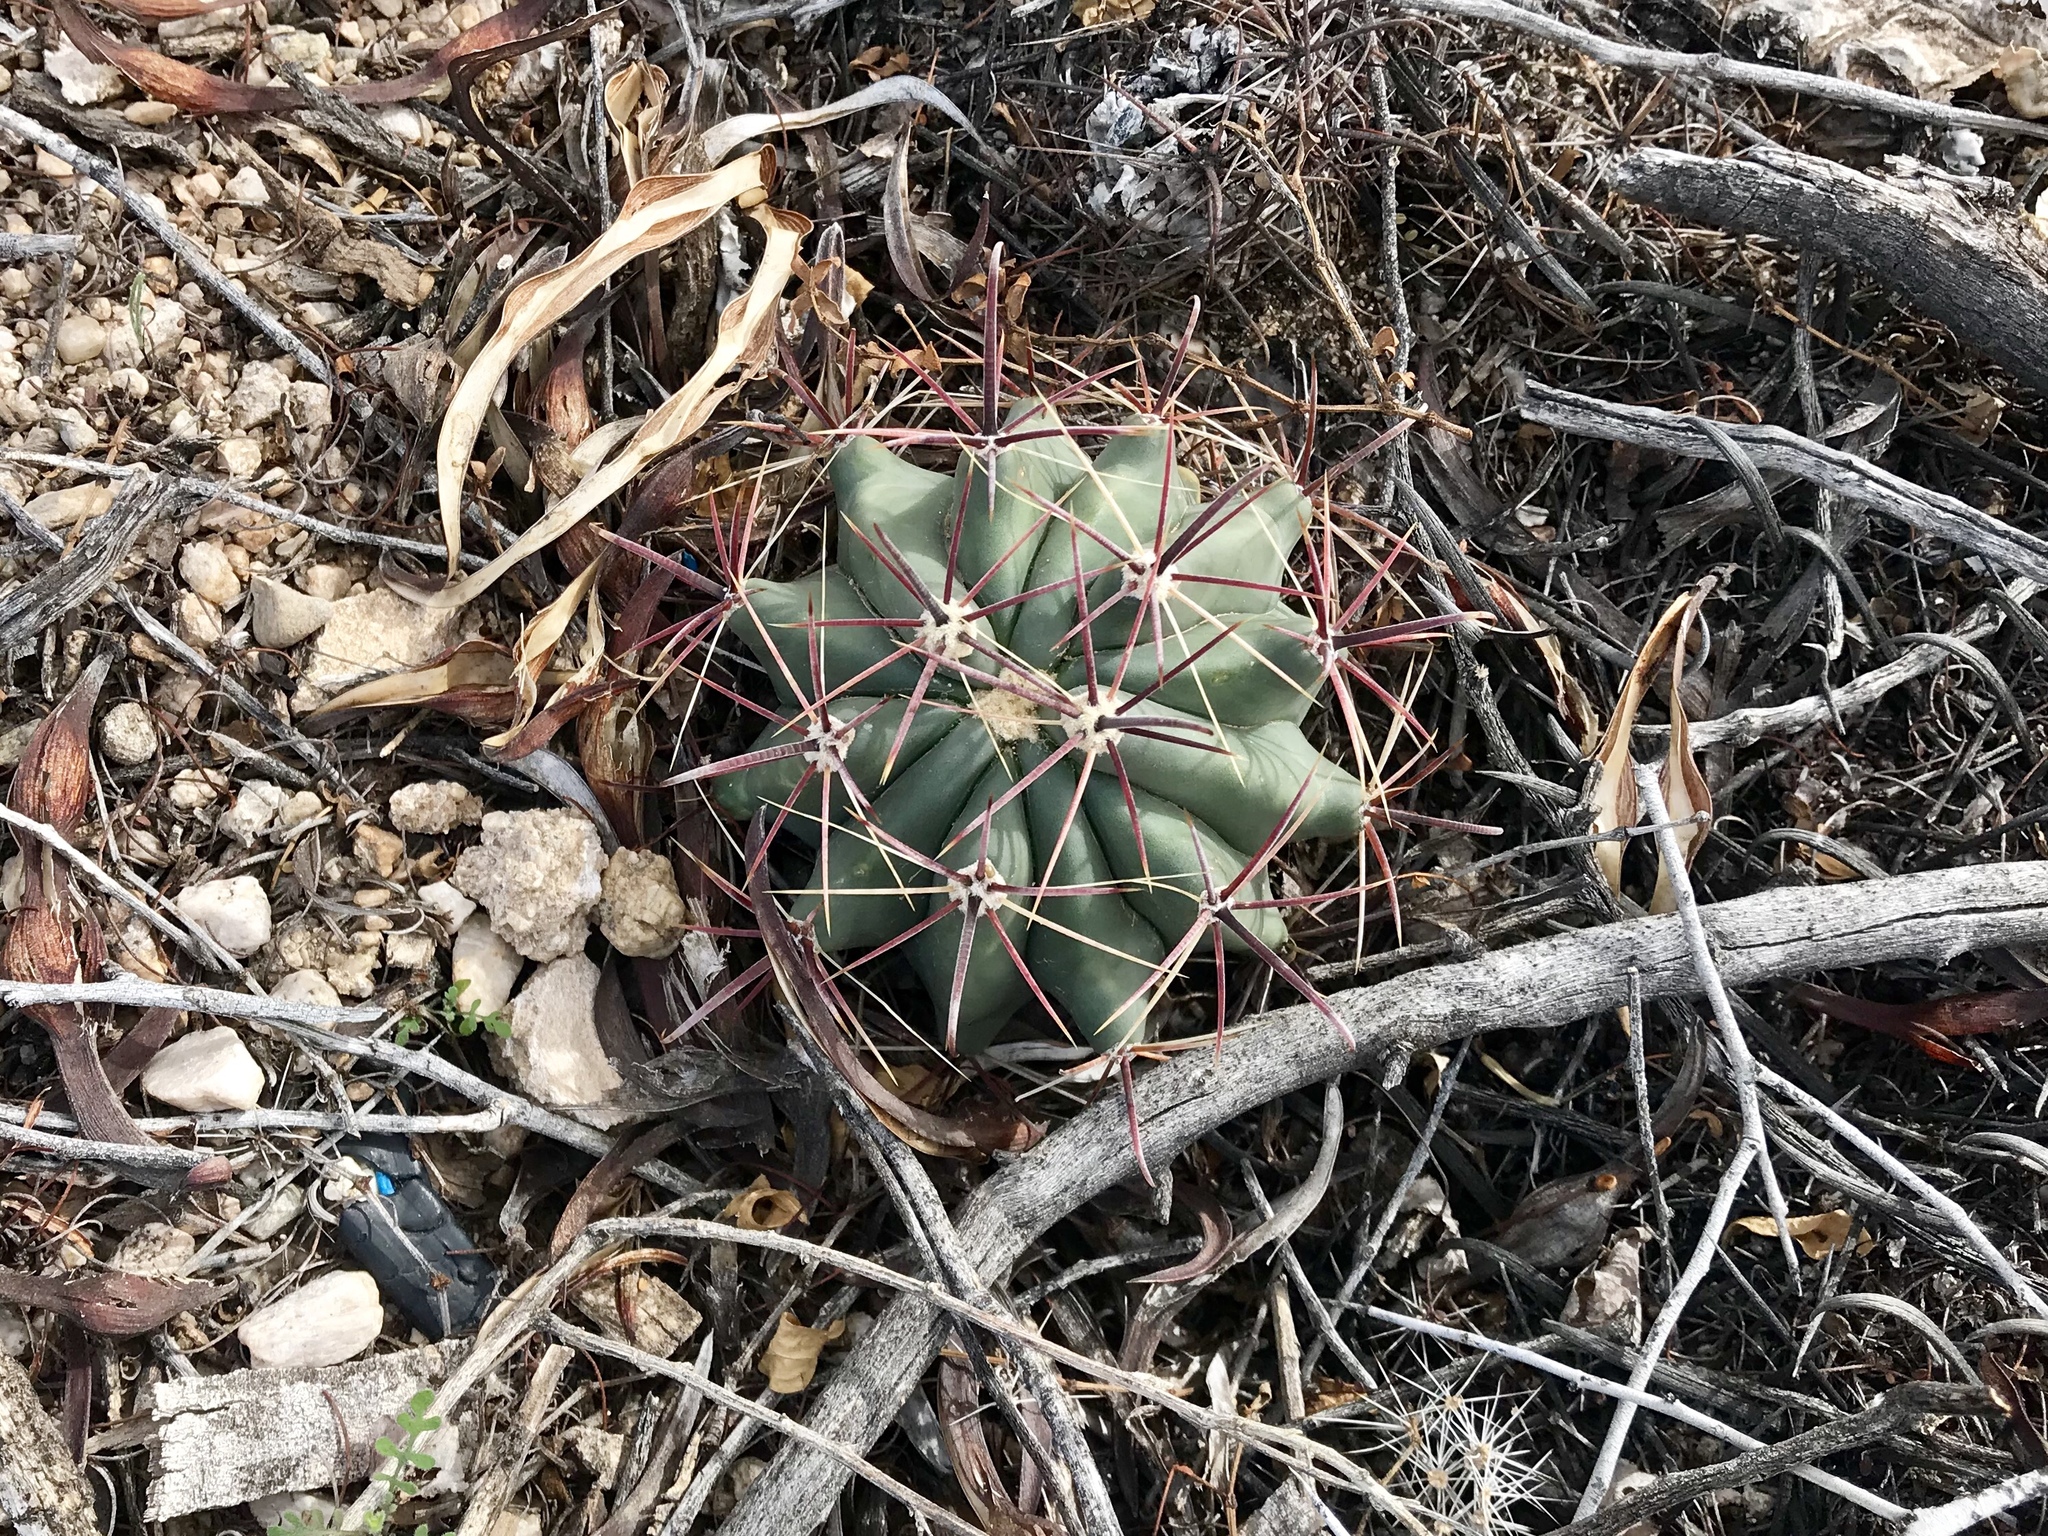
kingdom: Plantae
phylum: Tracheophyta
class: Magnoliopsida
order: Caryophyllales
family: Cactaceae
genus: Ferocactus
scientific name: Ferocactus wislizeni
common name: Candy barrel cactus
